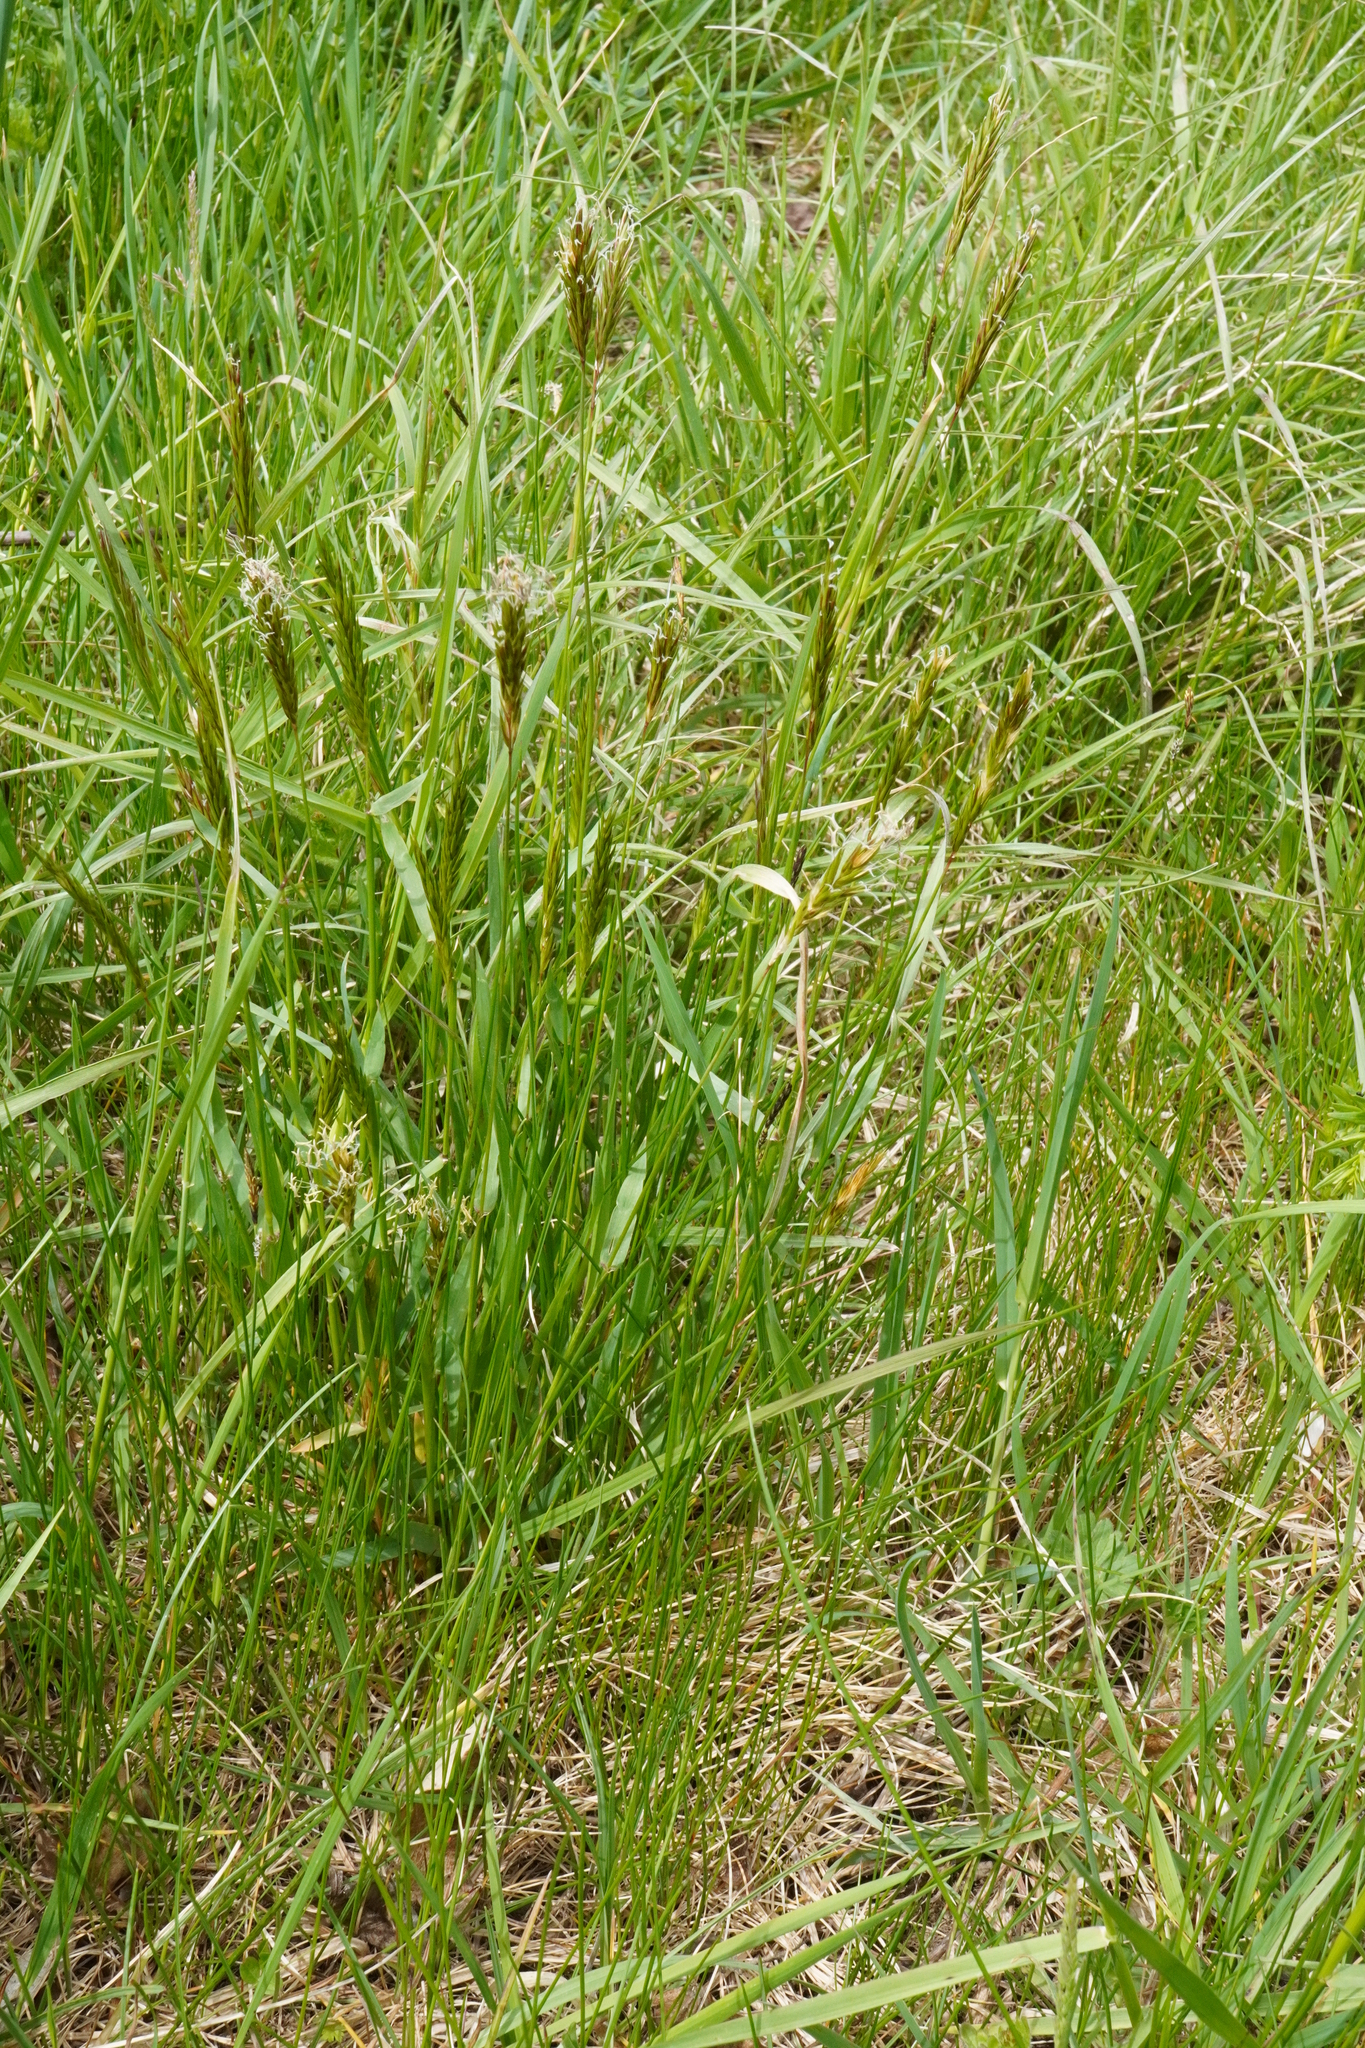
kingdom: Plantae
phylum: Tracheophyta
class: Liliopsida
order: Poales
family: Poaceae
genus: Anthoxanthum
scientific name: Anthoxanthum odoratum
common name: Sweet vernalgrass
